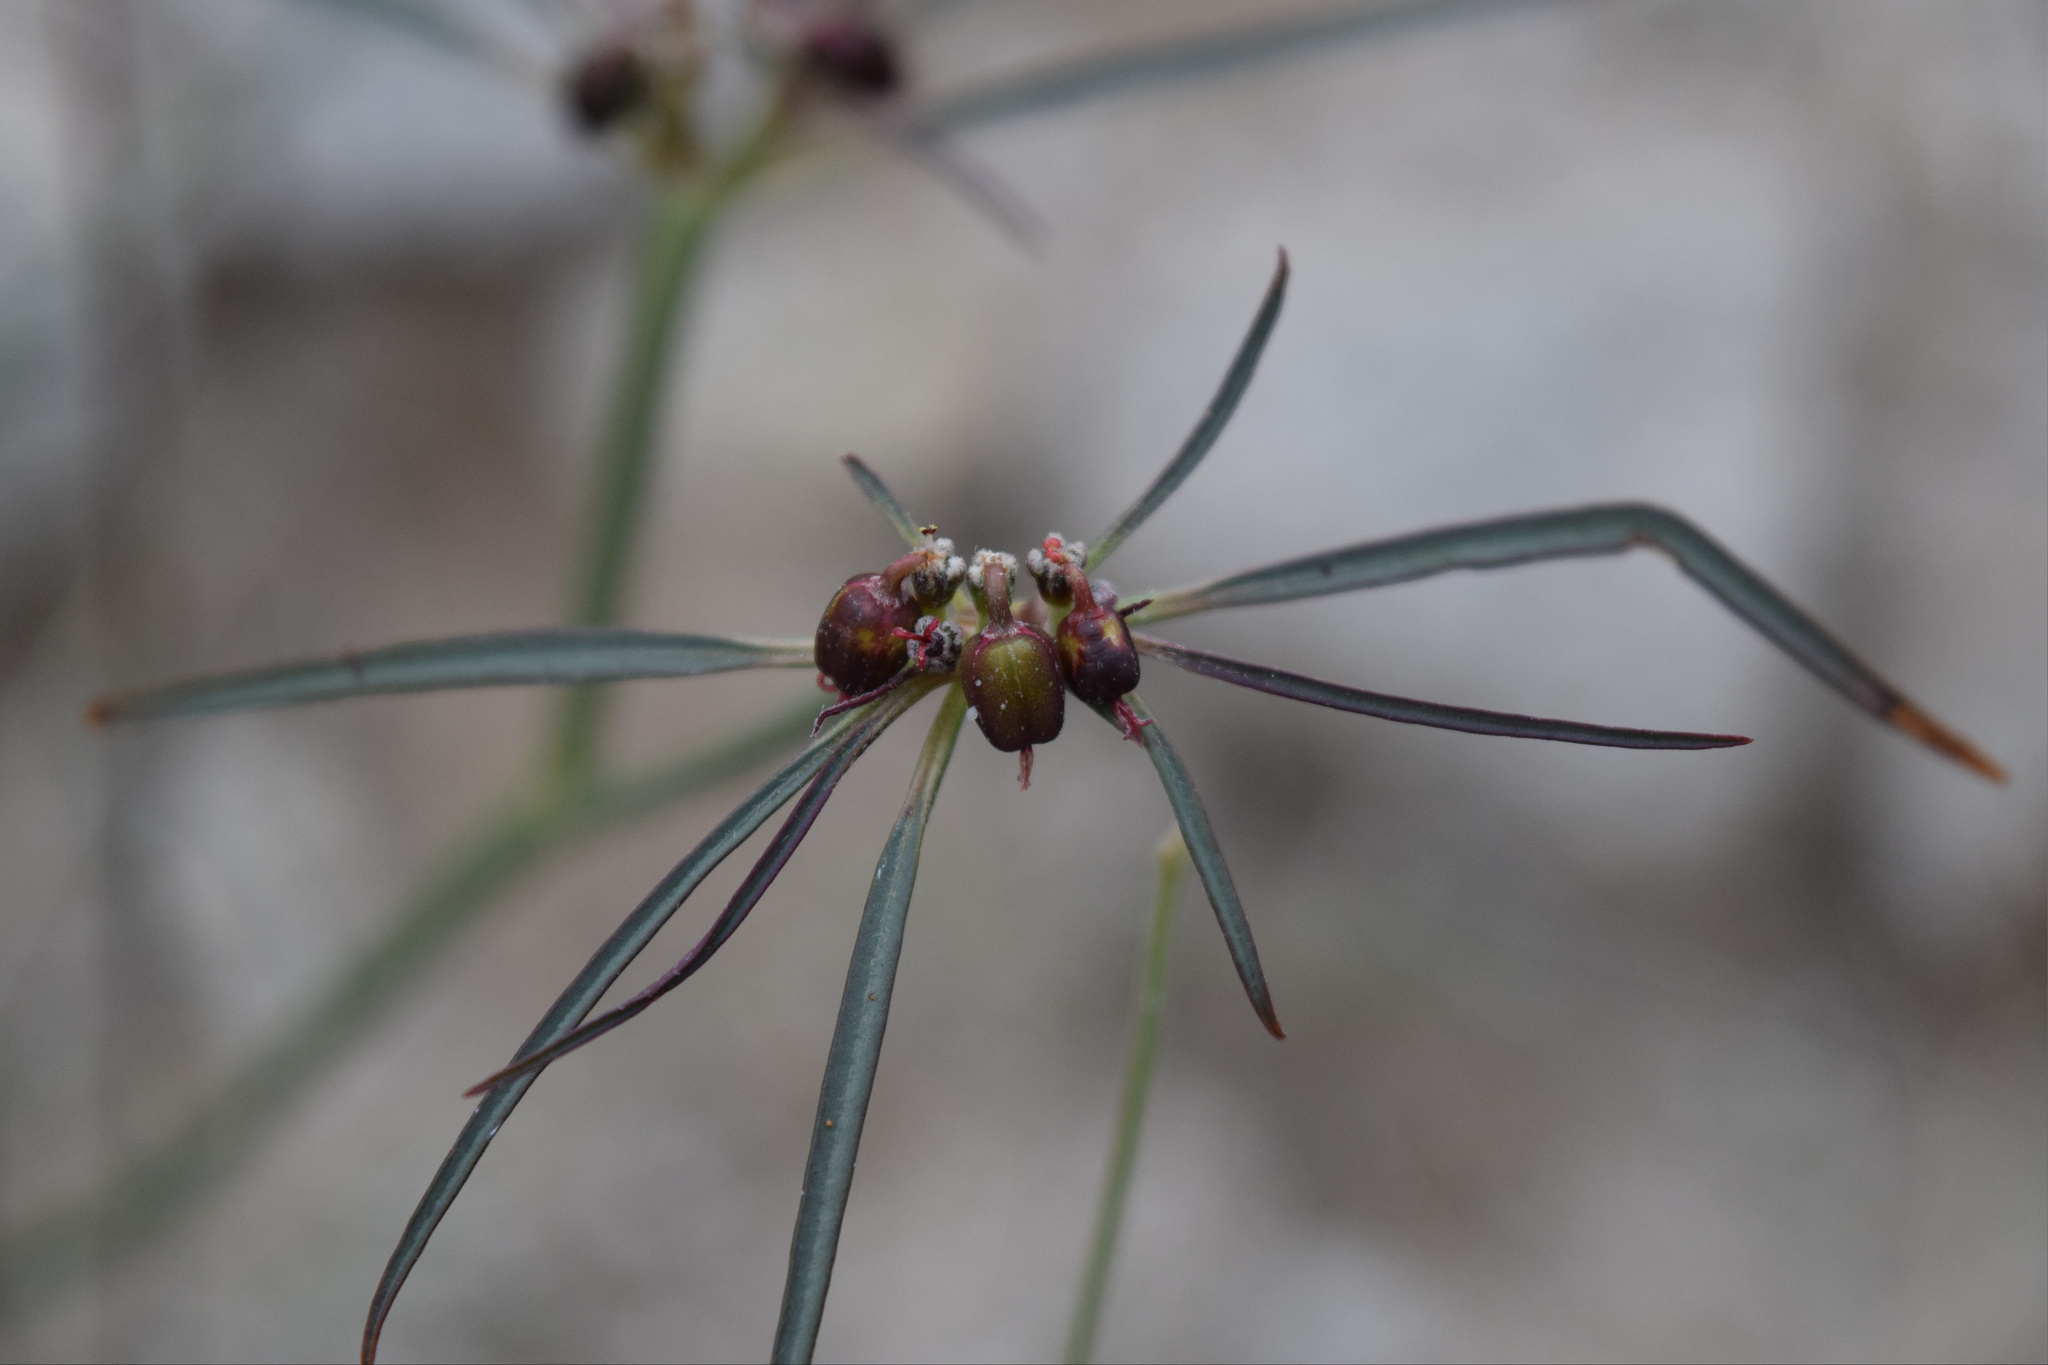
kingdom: Plantae
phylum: Tracheophyta
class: Magnoliopsida
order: Malpighiales
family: Euphorbiaceae
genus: Euphorbia
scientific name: Euphorbia eriantha
